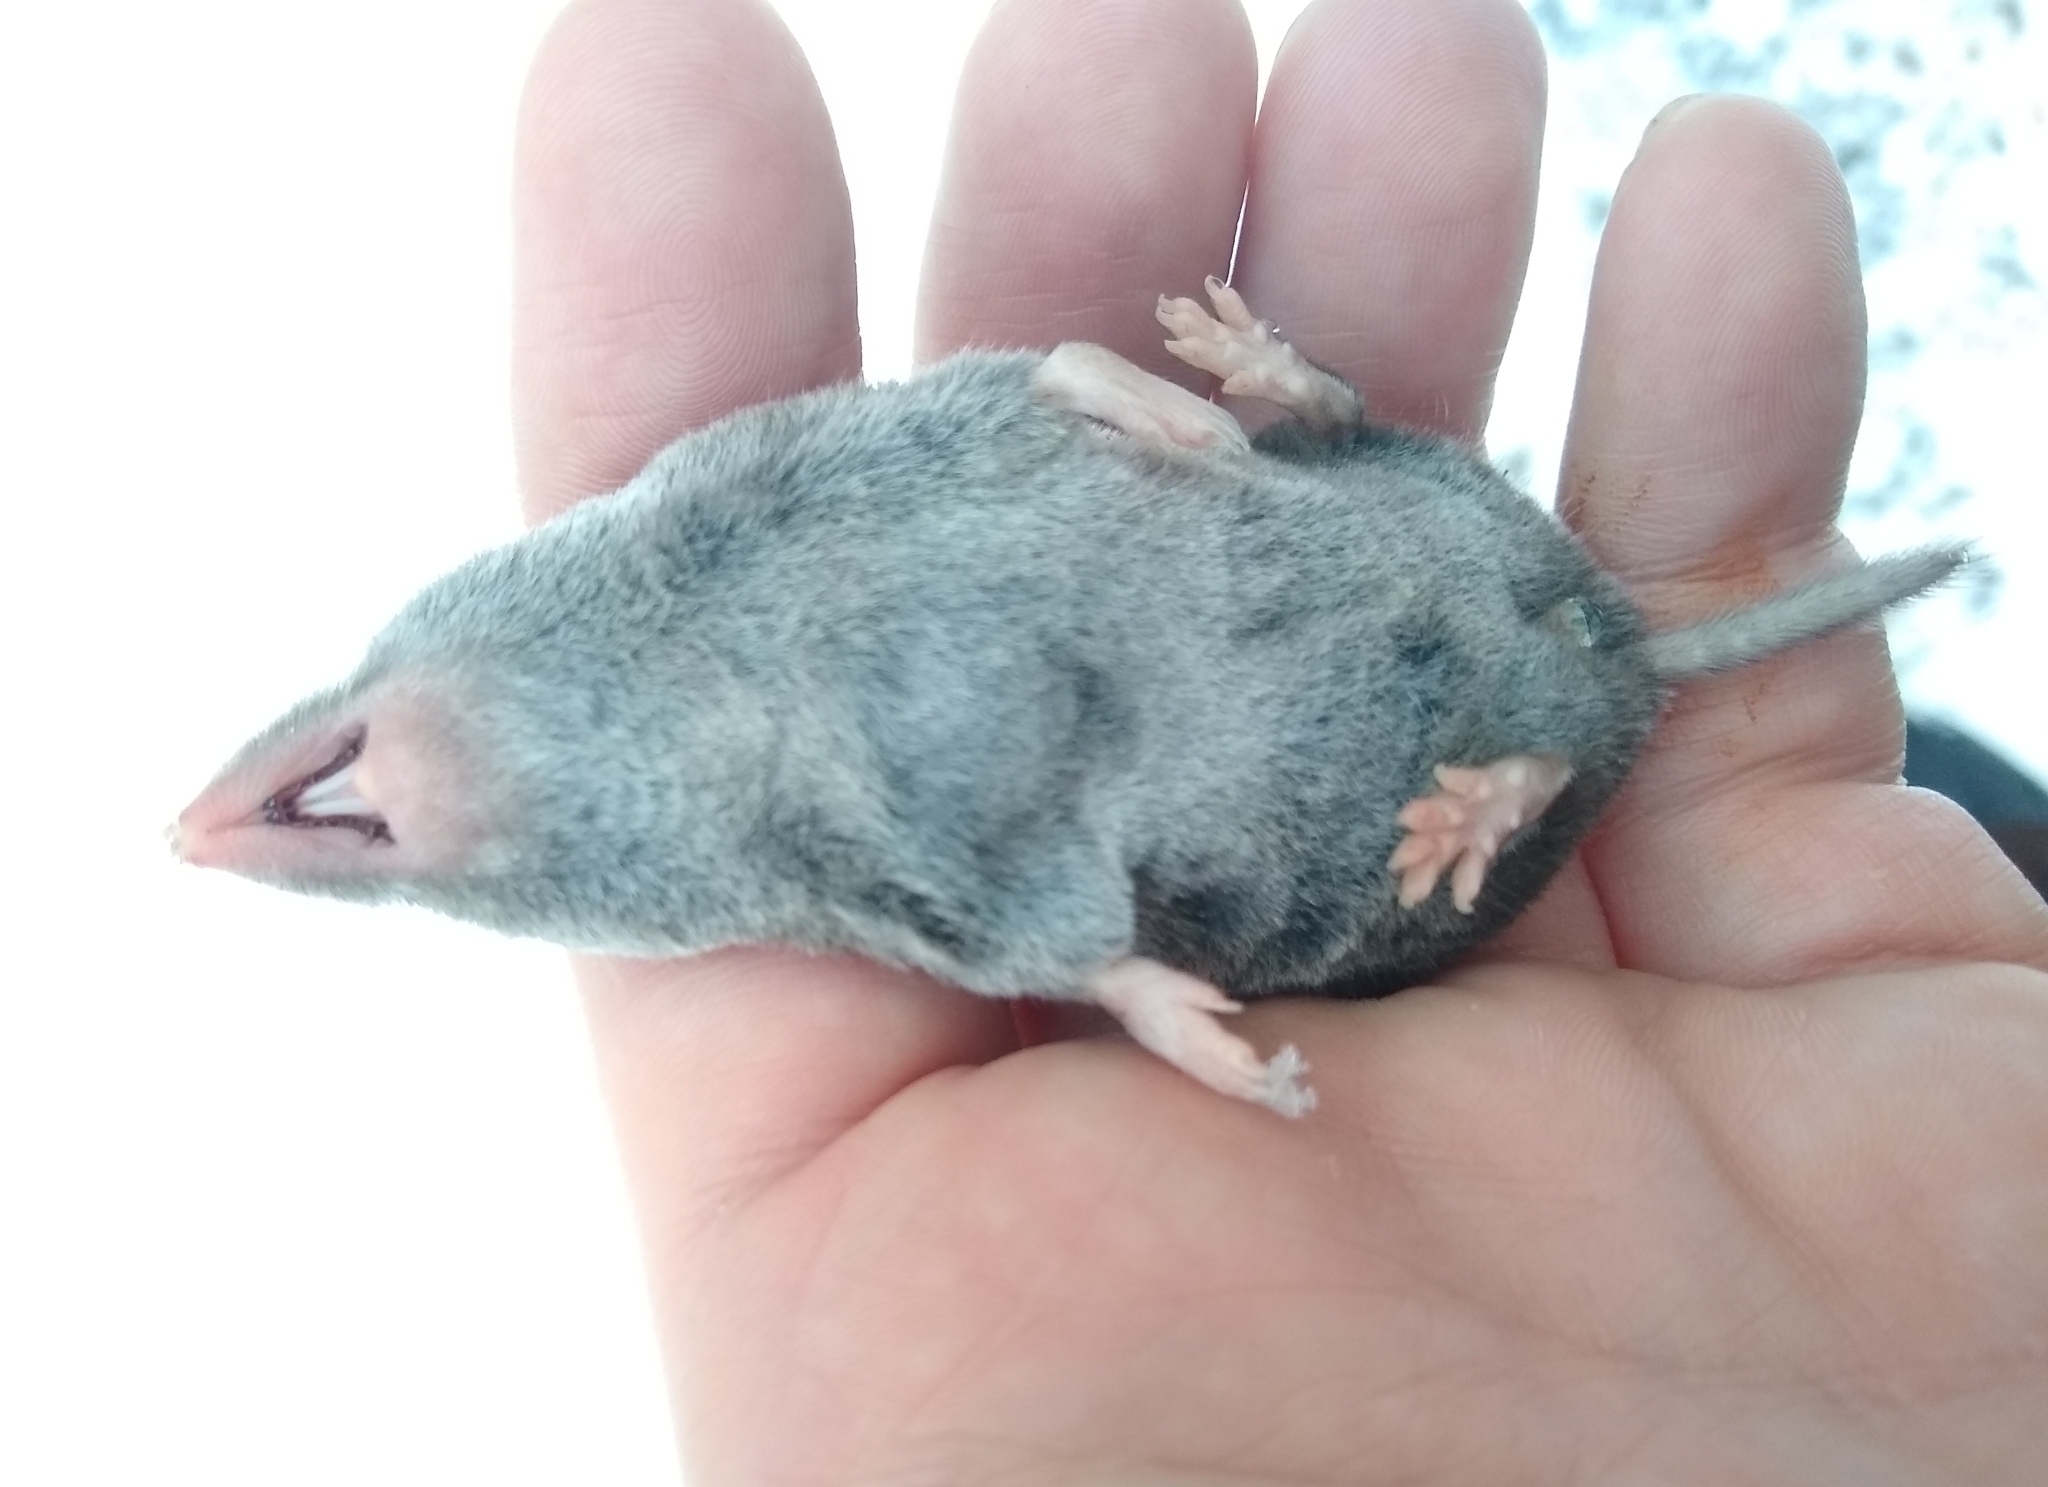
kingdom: Animalia
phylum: Chordata
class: Mammalia
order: Soricomorpha
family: Soricidae
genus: Blarina
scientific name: Blarina brevicauda
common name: Northern short-tailed shrew
